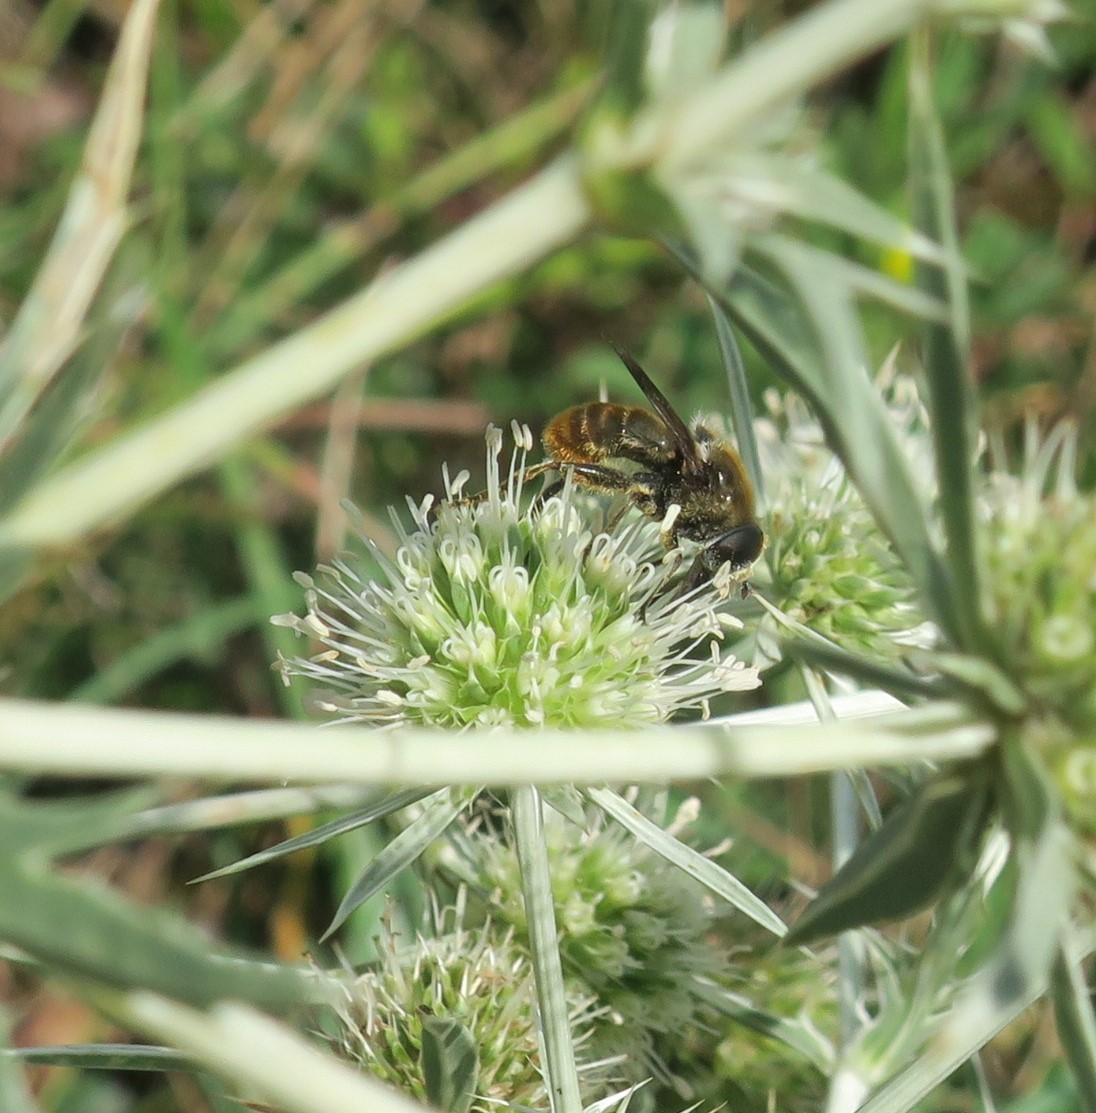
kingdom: Animalia
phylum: Arthropoda
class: Insecta
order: Diptera
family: Syrphidae
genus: Merodon
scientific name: Merodon constans
